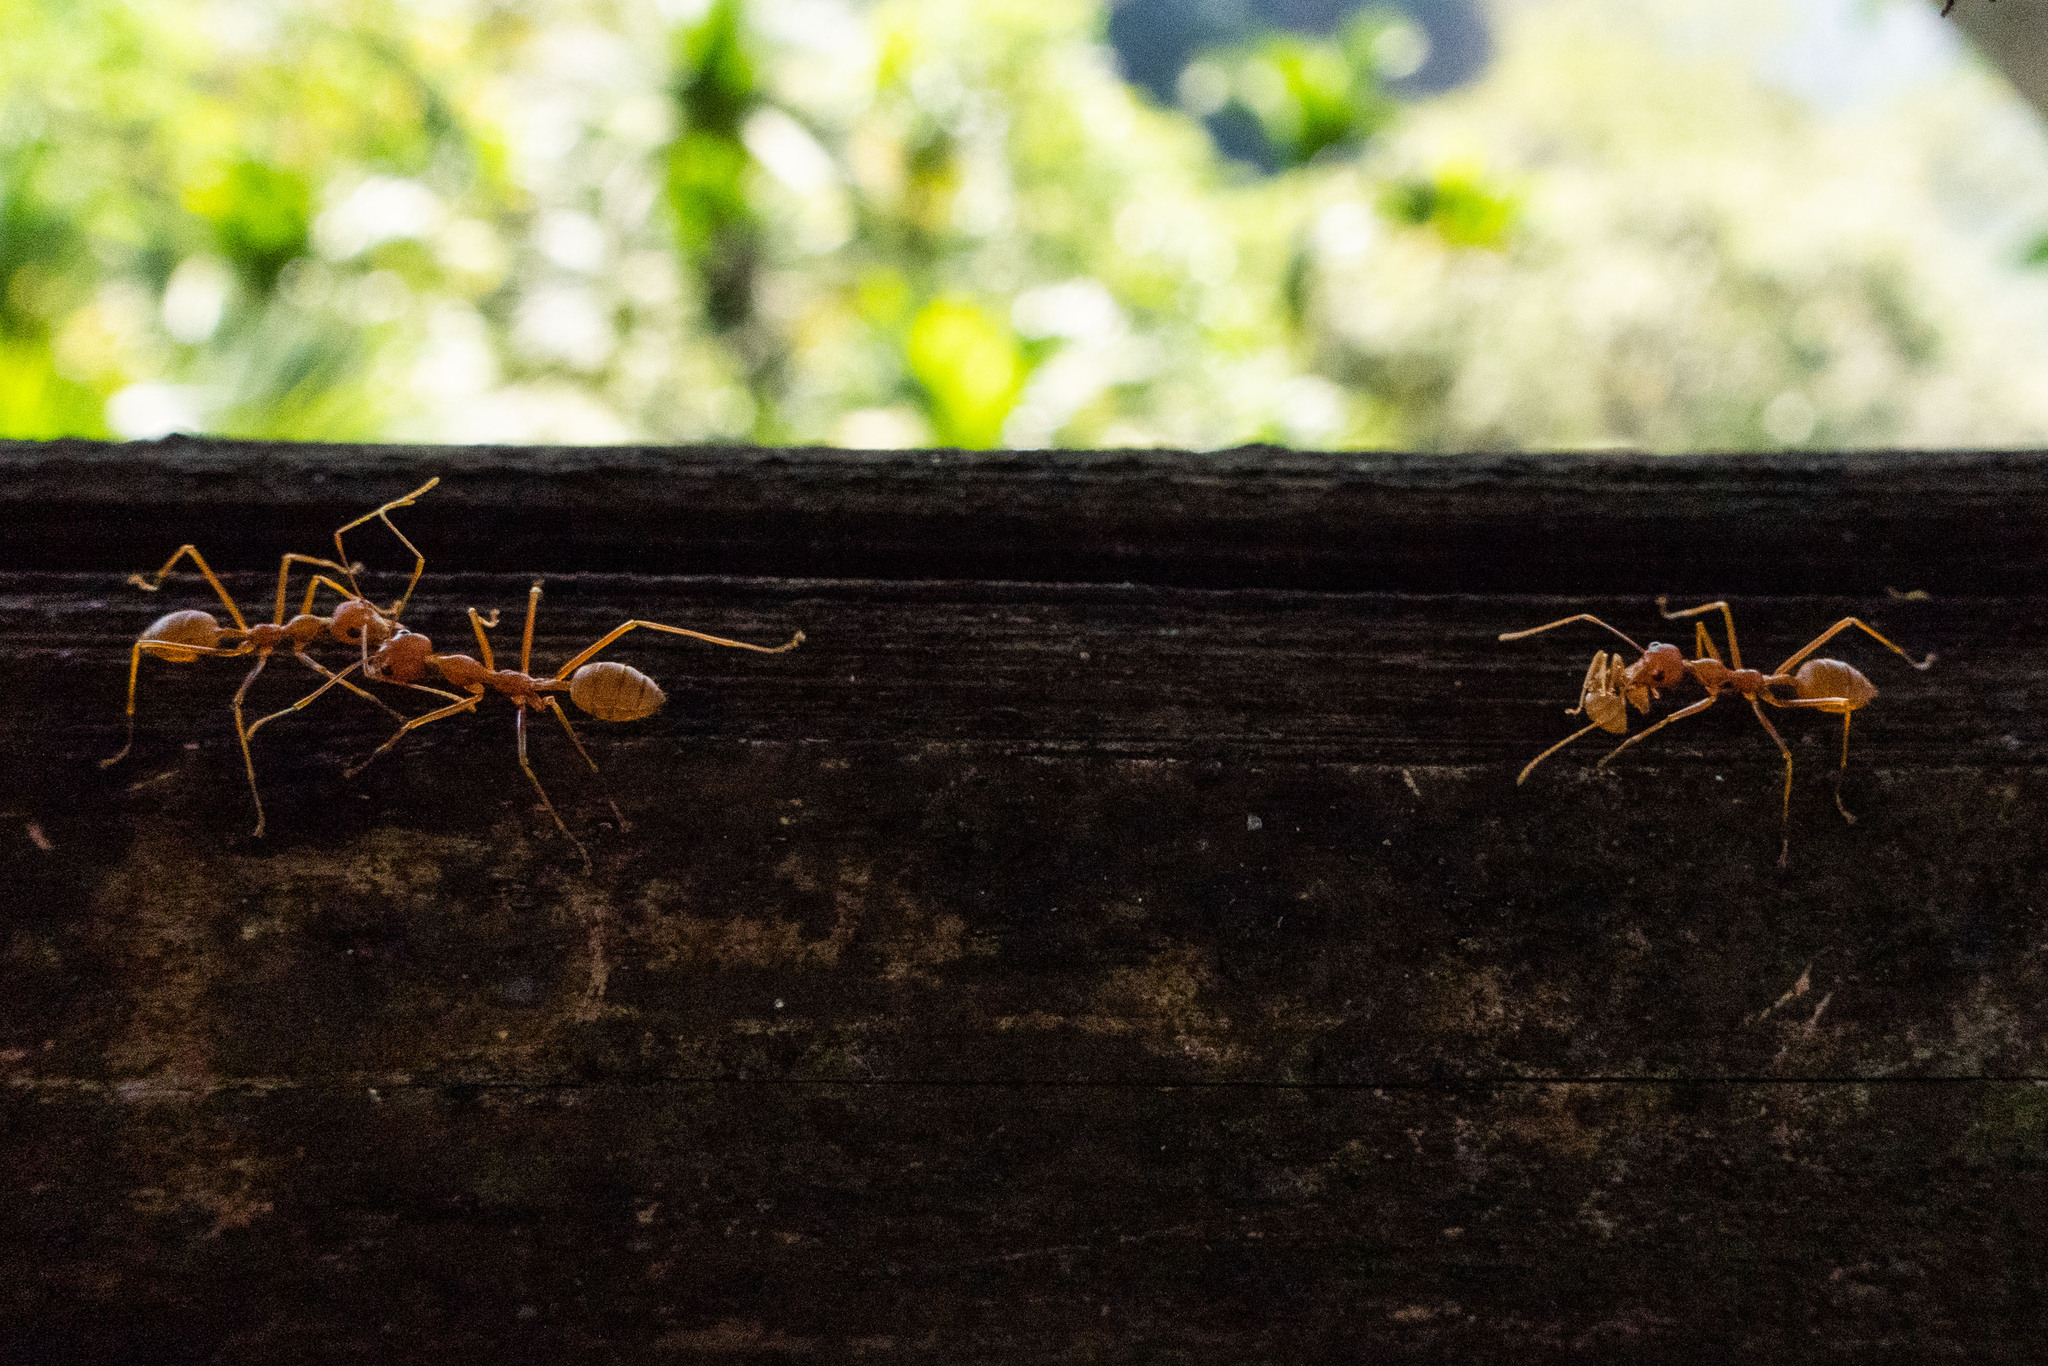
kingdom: Animalia
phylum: Arthropoda
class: Insecta
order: Hymenoptera
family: Formicidae
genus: Oecophylla
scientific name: Oecophylla smaragdina
